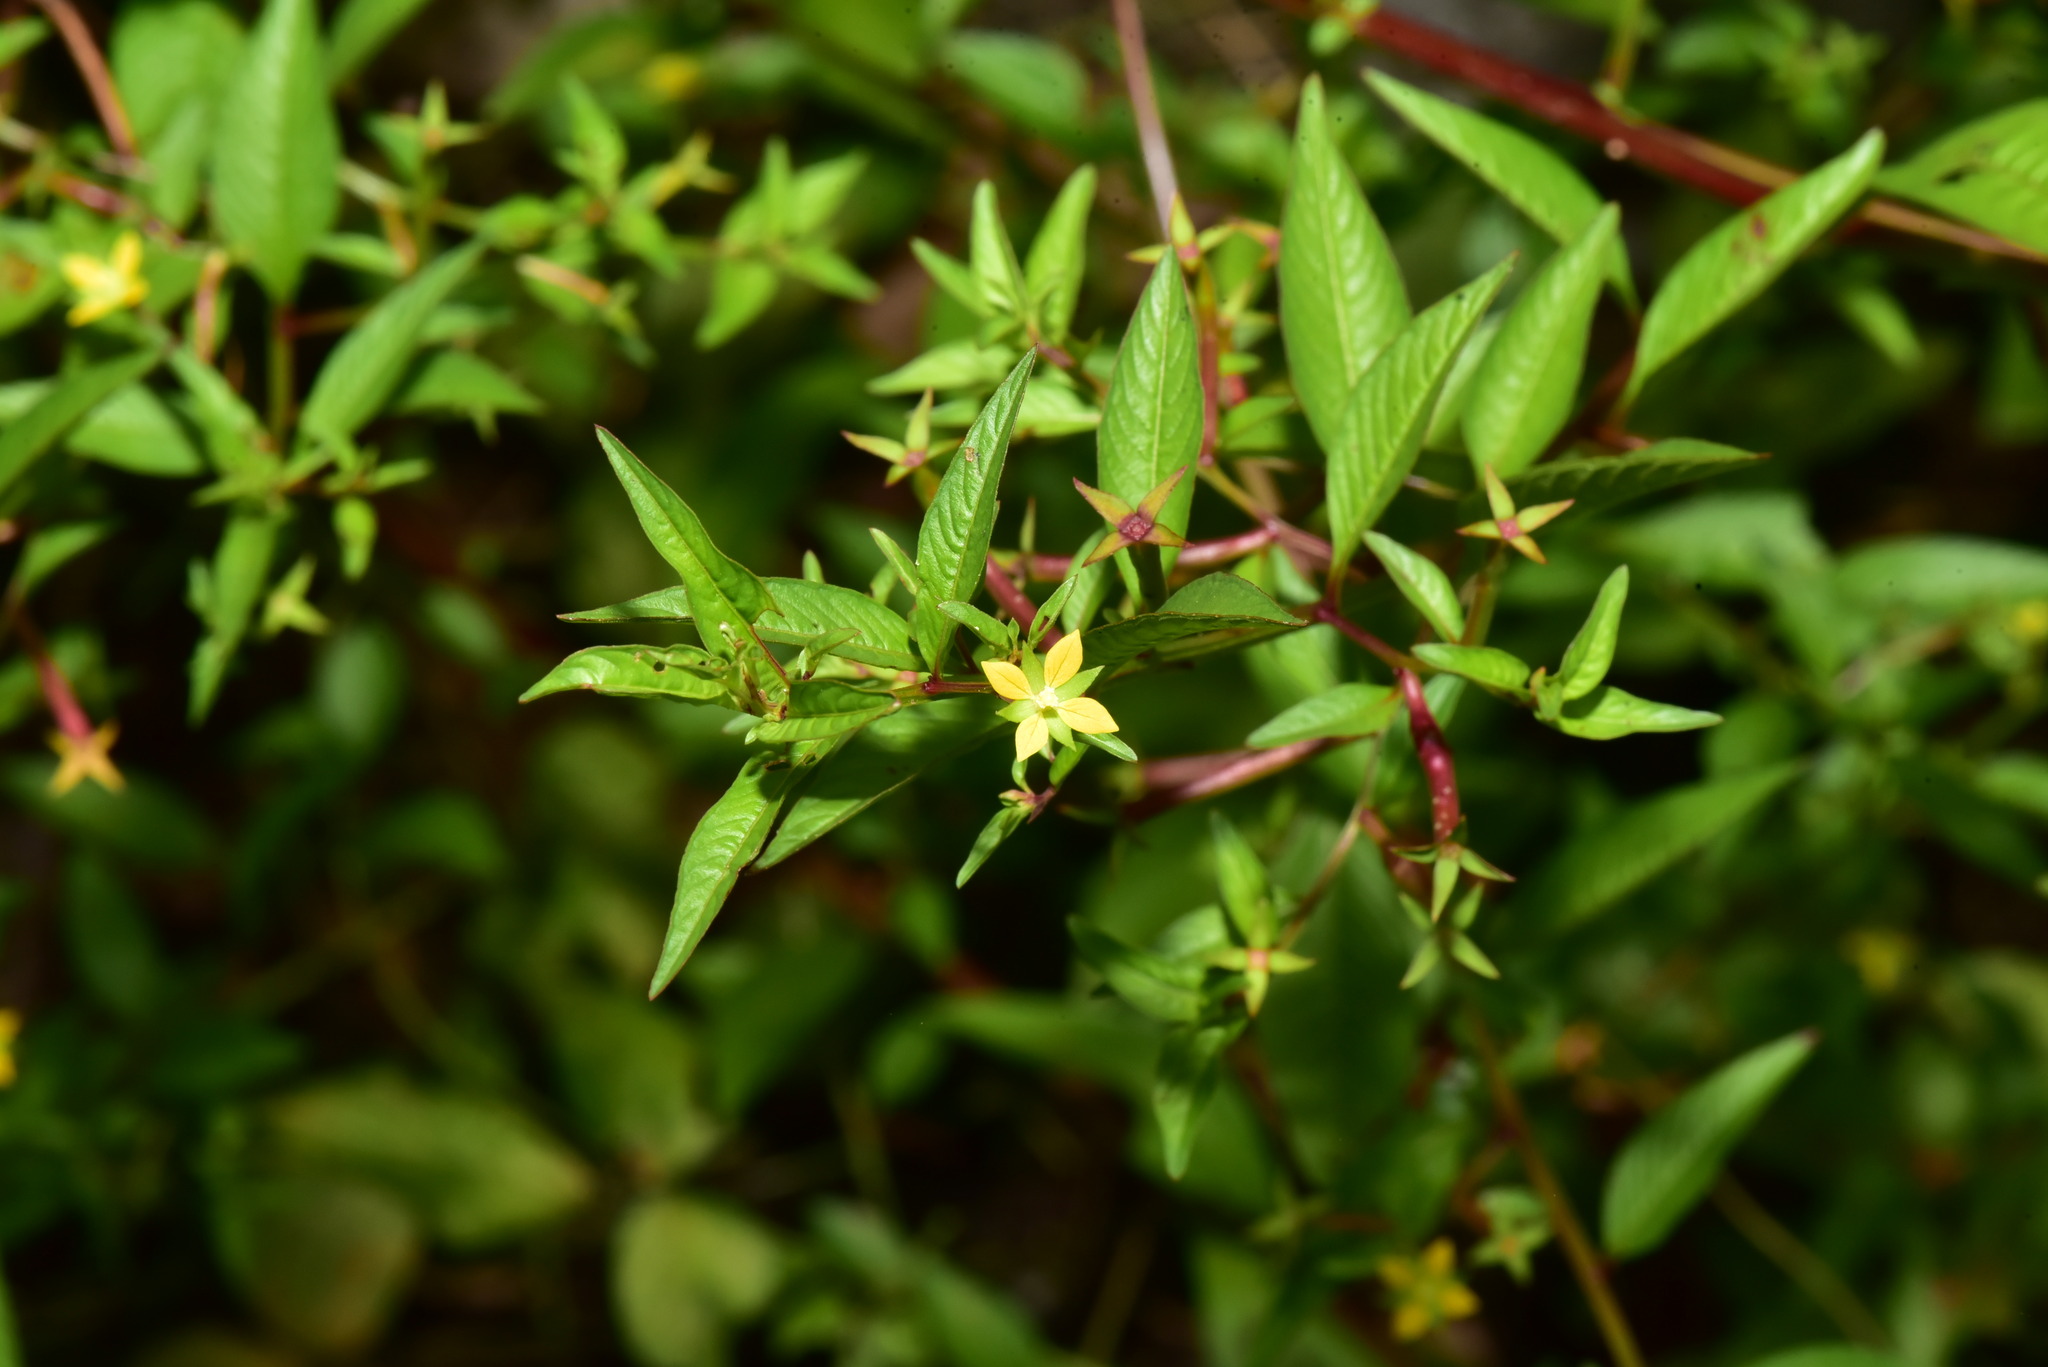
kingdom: Plantae
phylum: Tracheophyta
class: Magnoliopsida
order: Myrtales
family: Onagraceae
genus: Ludwigia
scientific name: Ludwigia hyssopifolia
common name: Linear leaf water primrose
